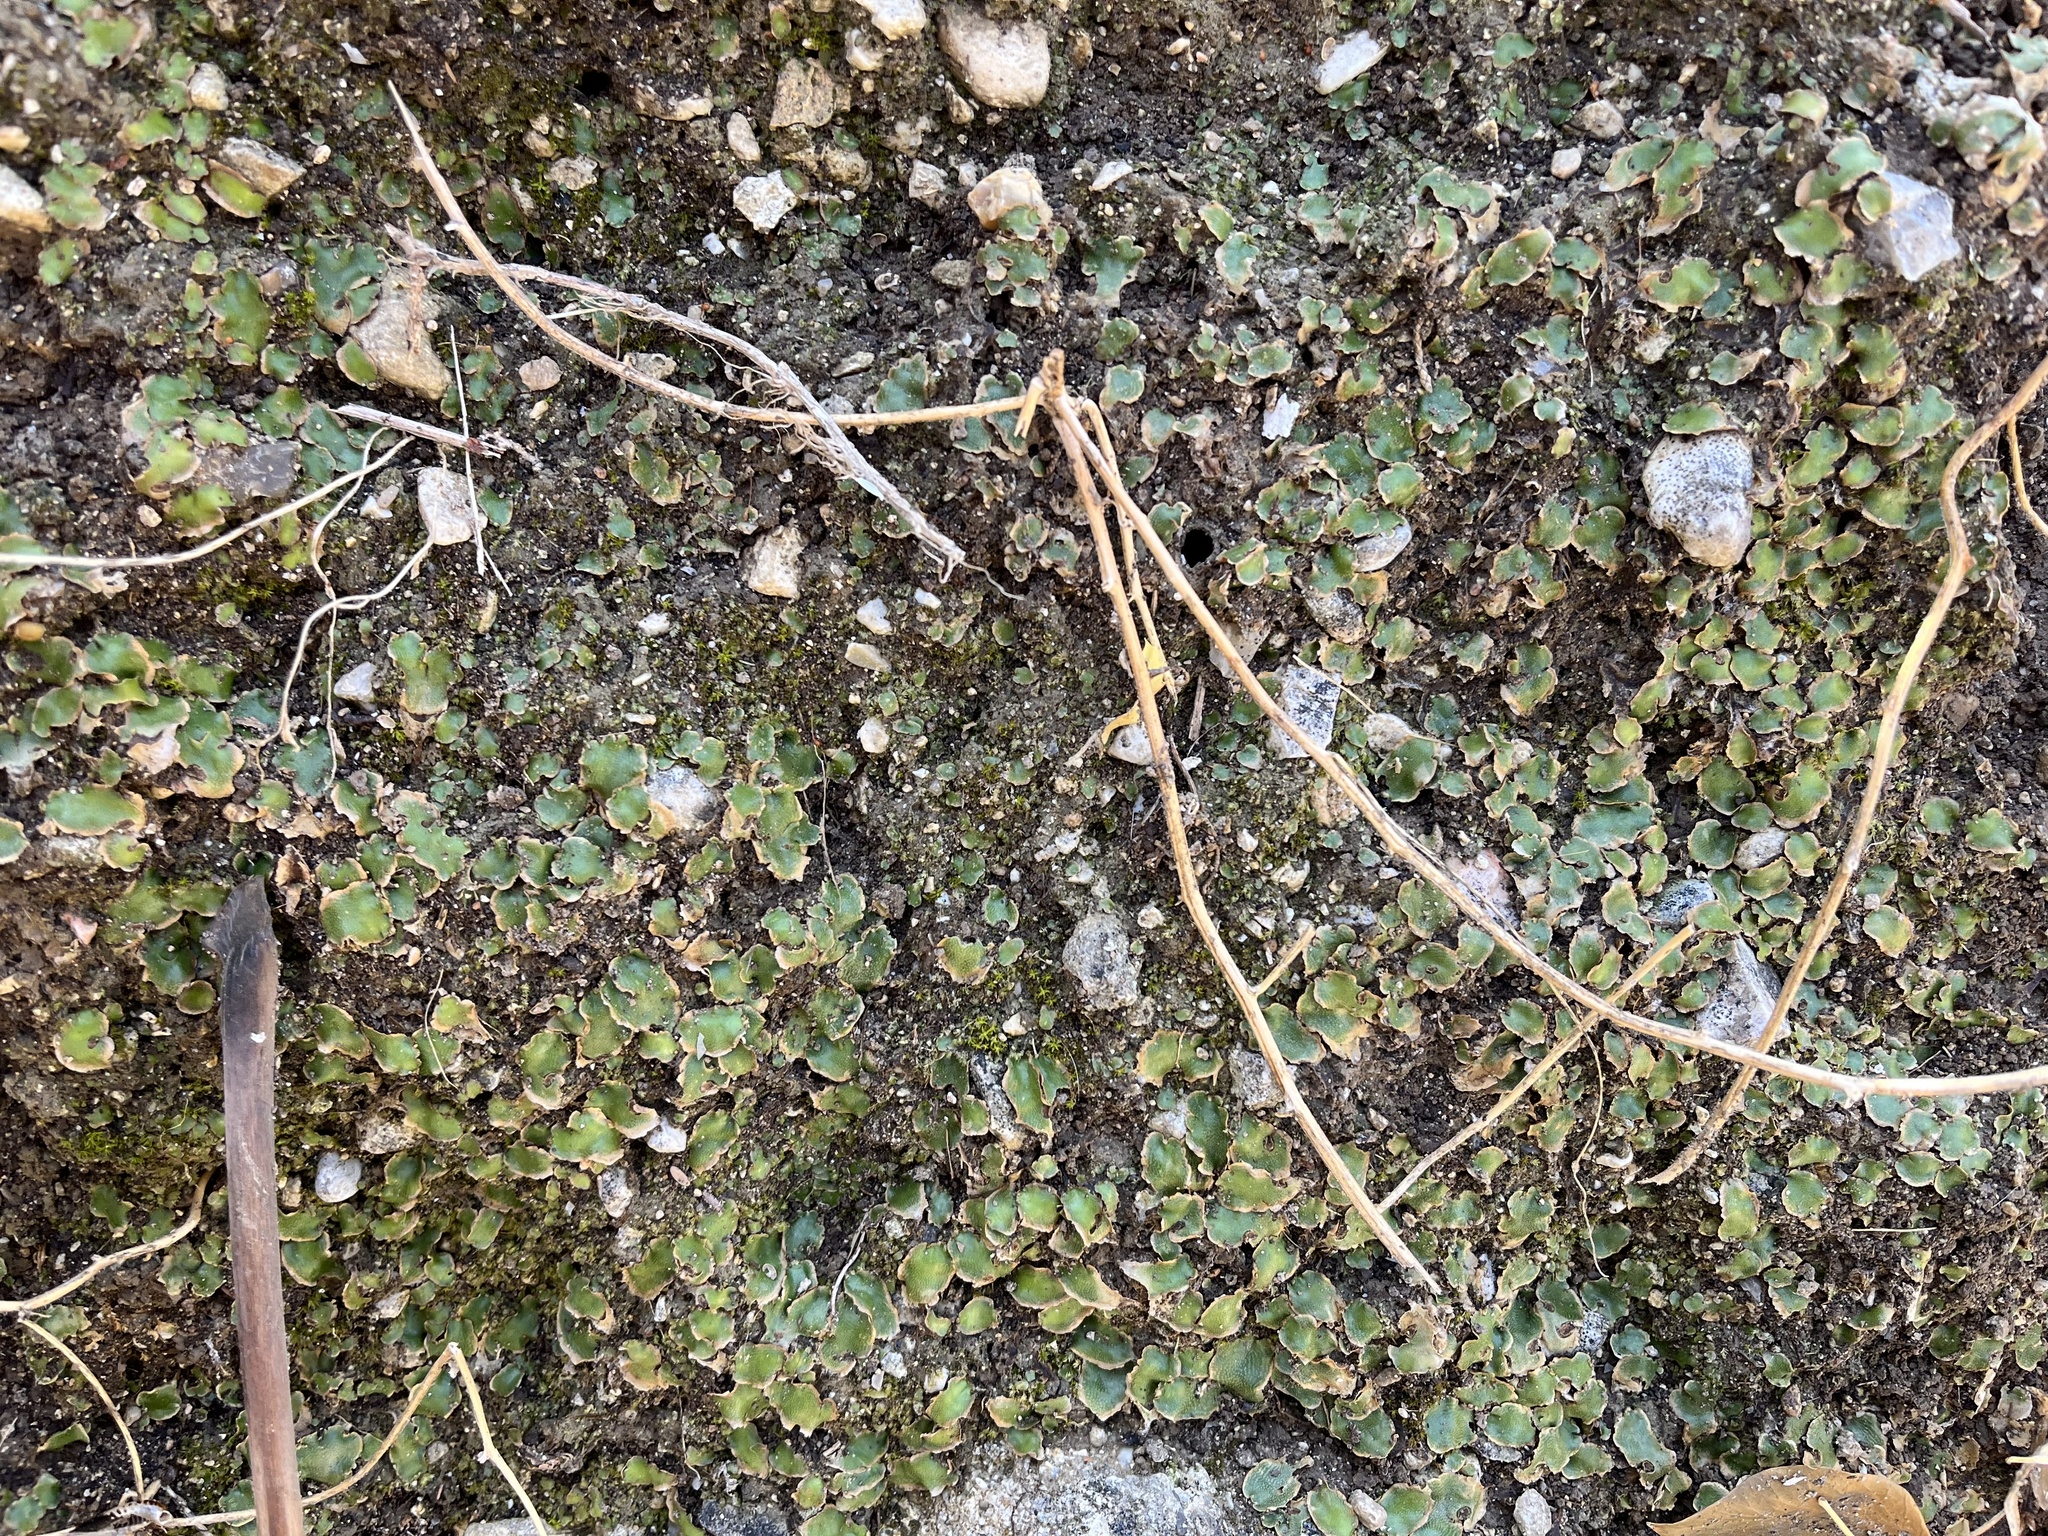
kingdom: Plantae
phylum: Marchantiophyta
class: Marchantiopsida
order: Lunulariales
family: Lunulariaceae
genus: Lunularia
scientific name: Lunularia cruciata
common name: Crescent-cup liverwort
